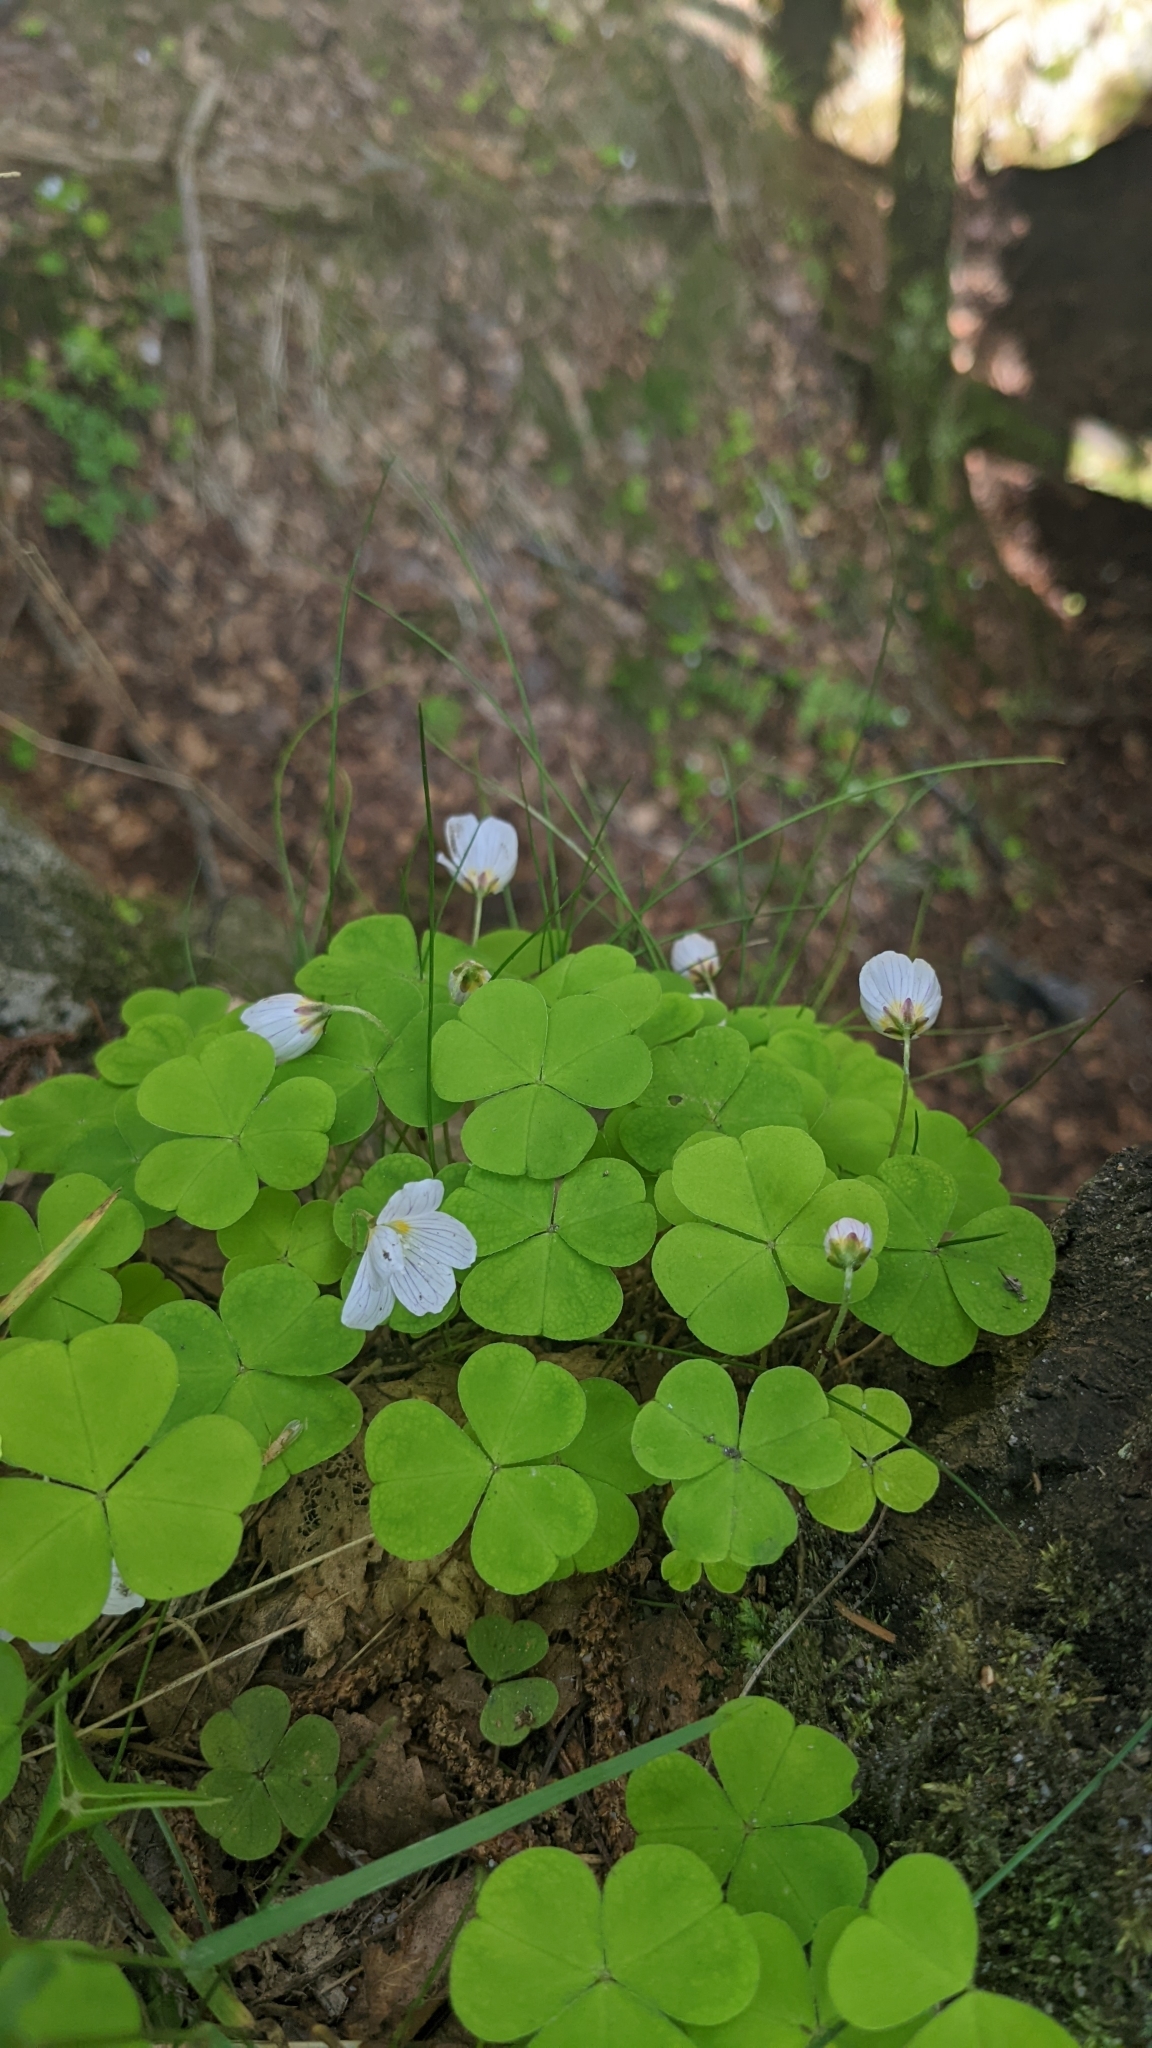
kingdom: Plantae
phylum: Tracheophyta
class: Magnoliopsida
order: Oxalidales
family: Oxalidaceae
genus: Oxalis
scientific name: Oxalis acetosella
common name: Wood-sorrel
